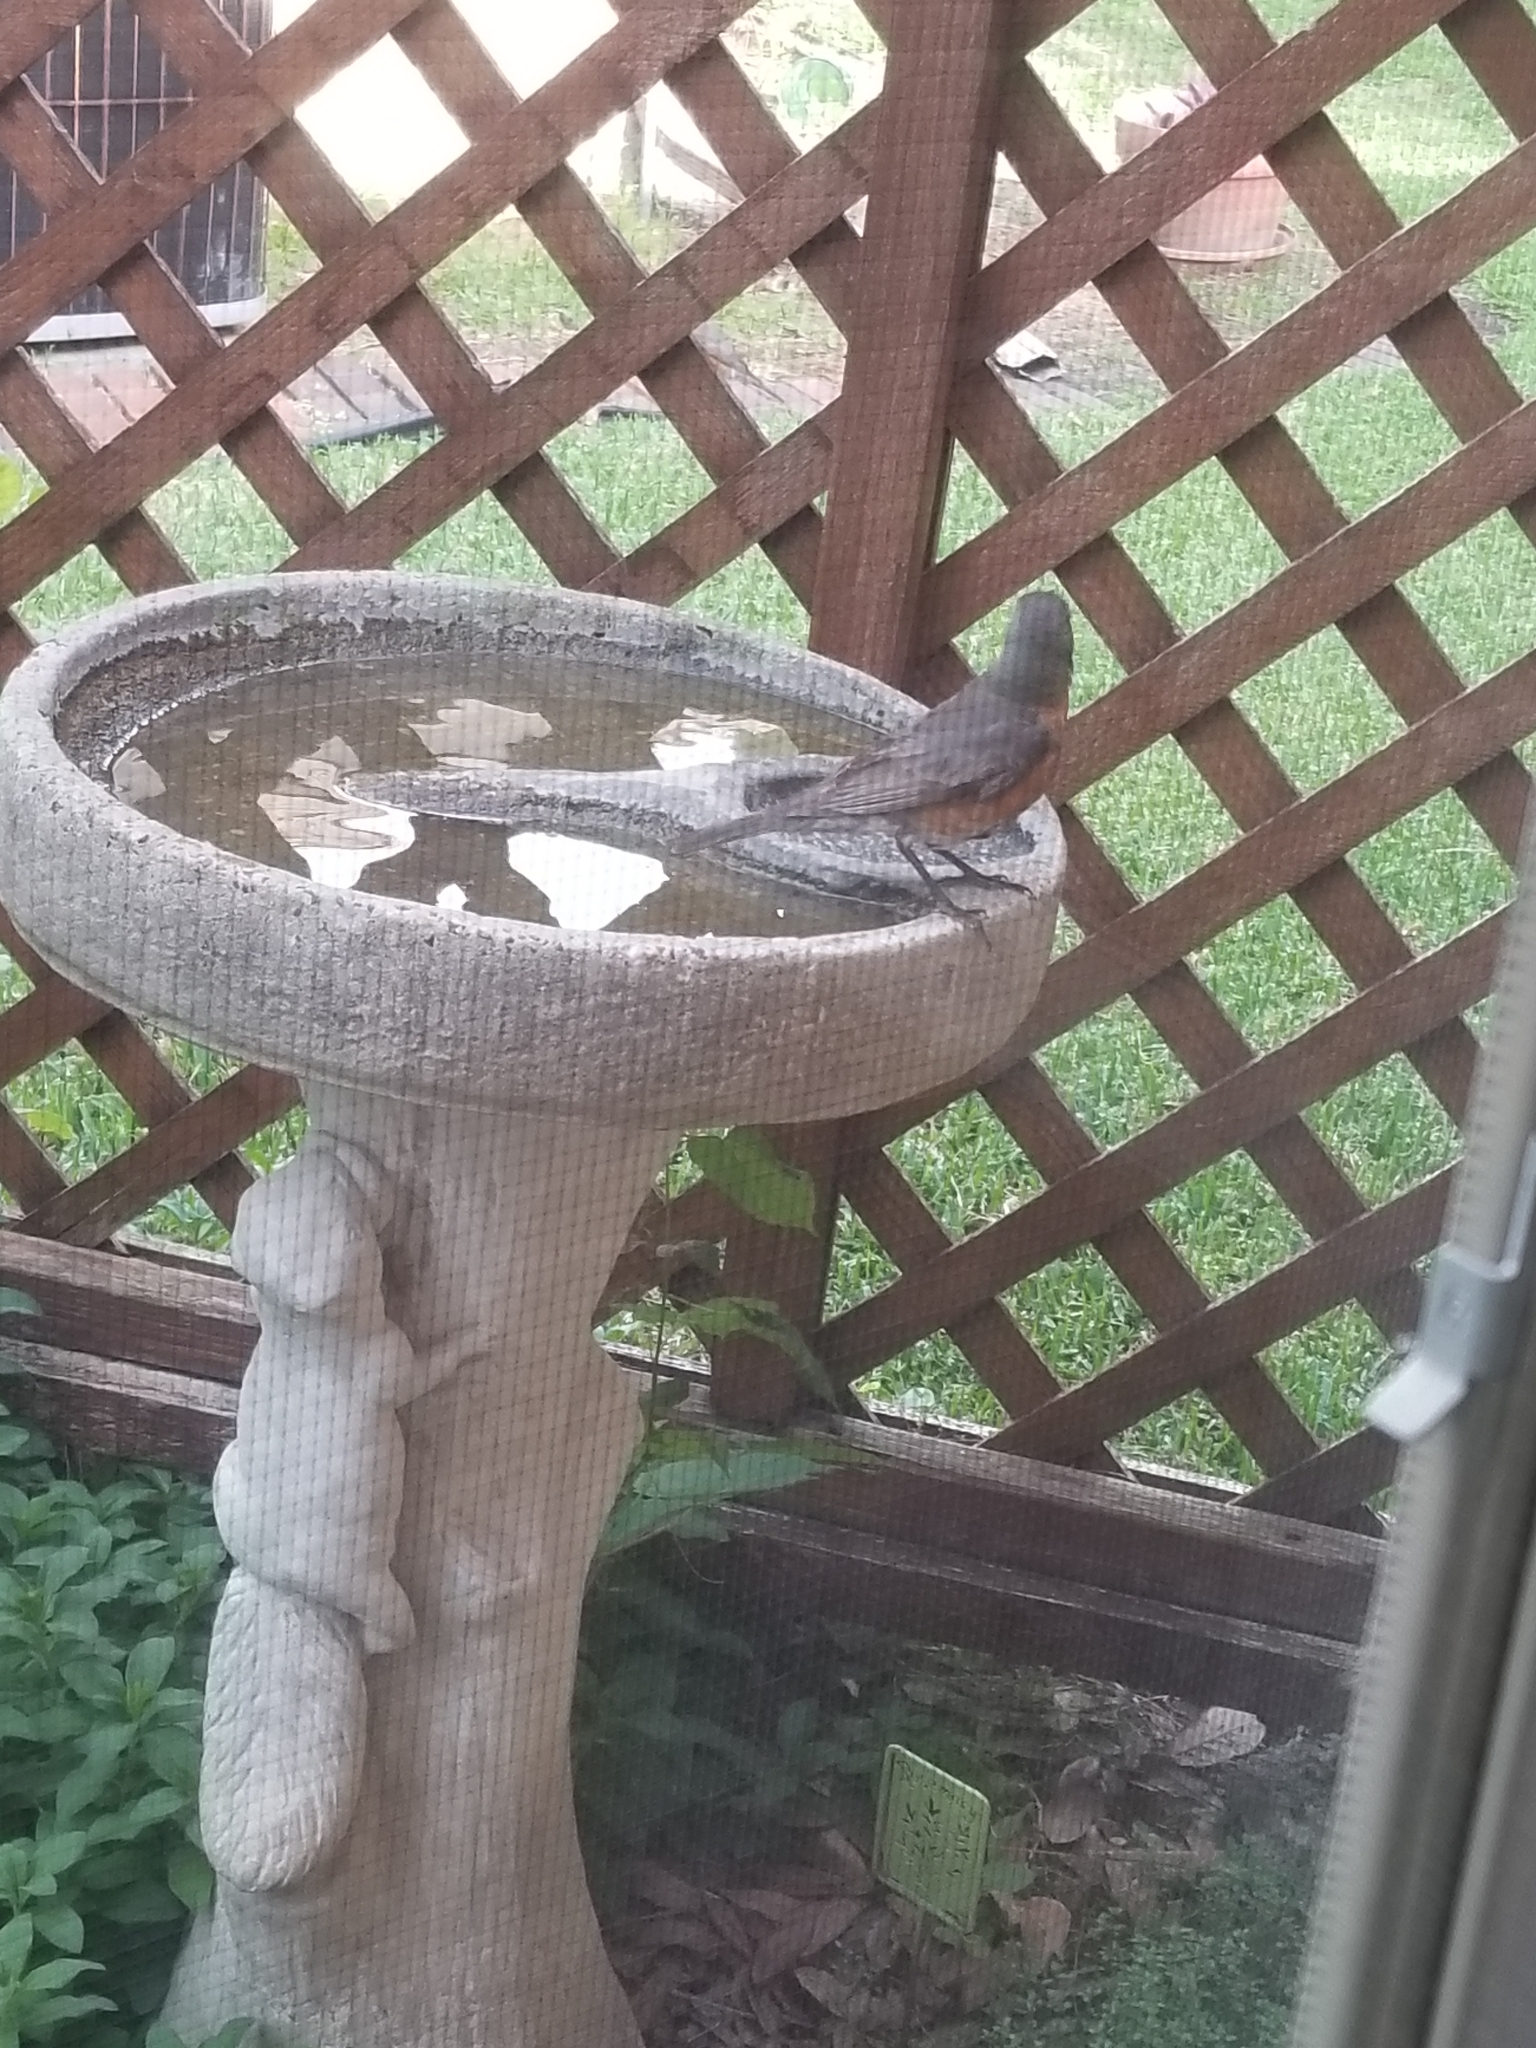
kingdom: Animalia
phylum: Chordata
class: Aves
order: Passeriformes
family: Turdidae
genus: Turdus
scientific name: Turdus migratorius
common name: American robin
